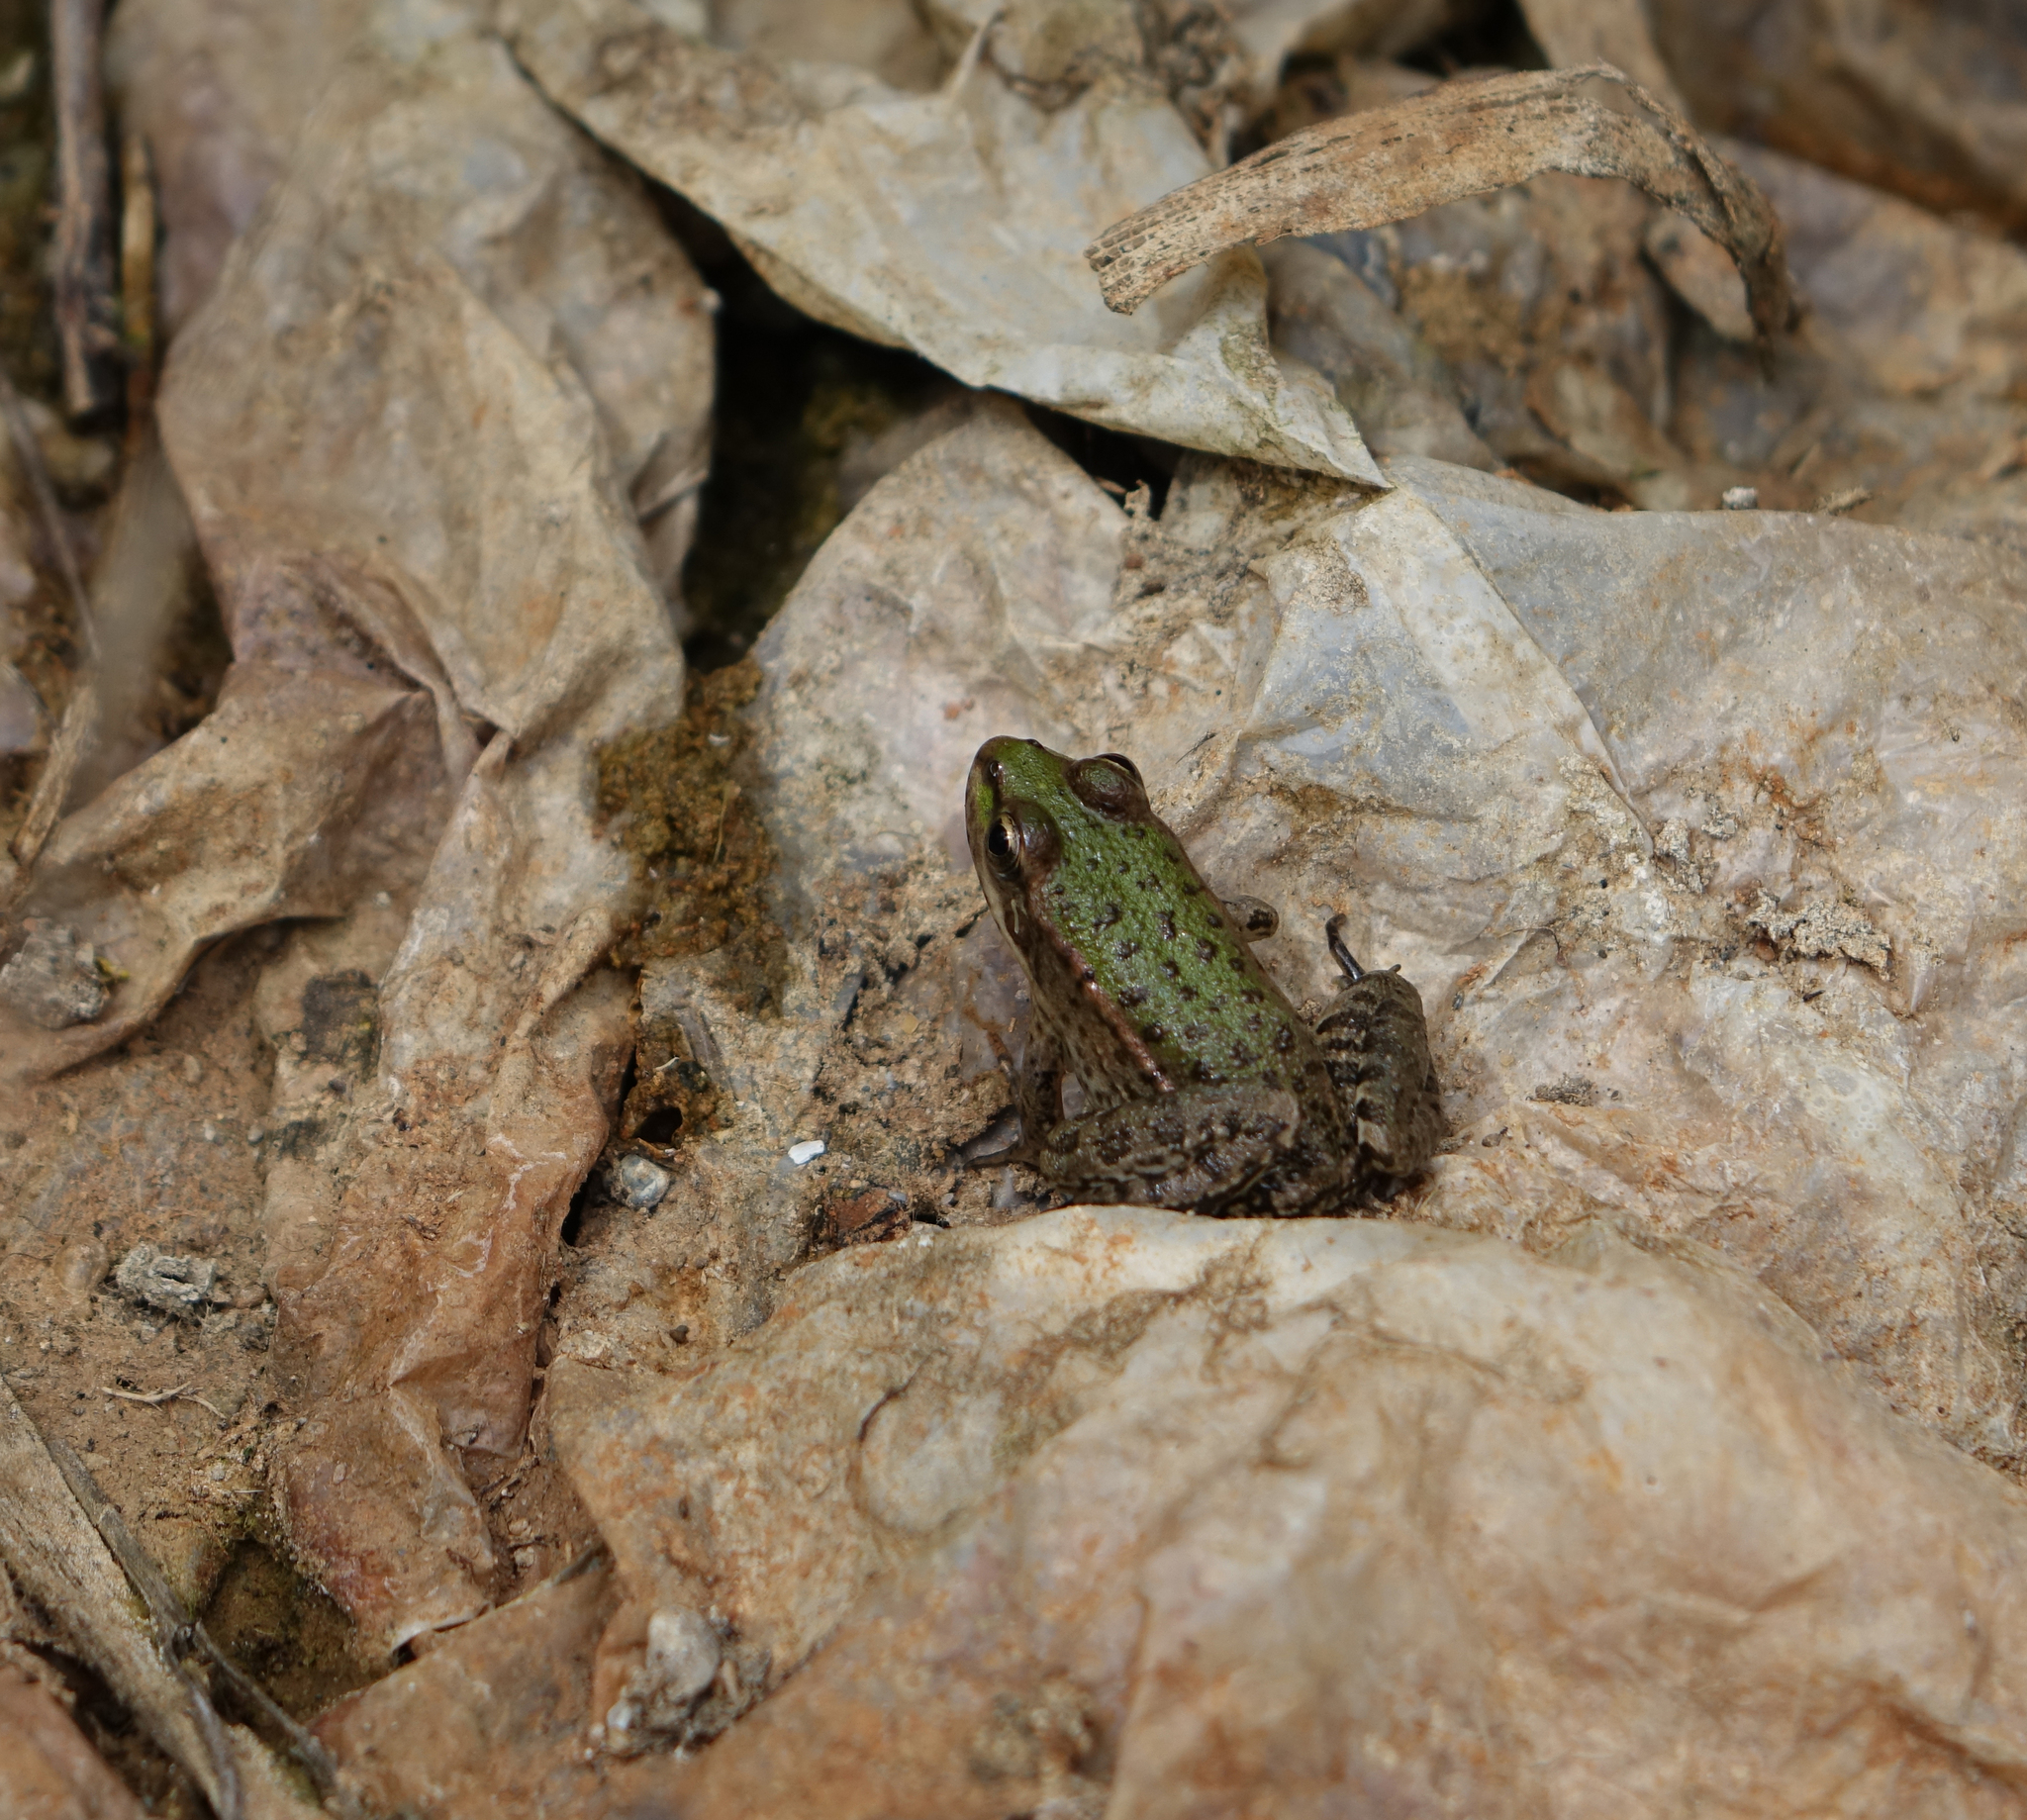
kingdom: Animalia
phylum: Chordata
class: Amphibia
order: Anura
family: Ranidae
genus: Pelophylax
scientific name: Pelophylax ridibundus
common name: Marsh frog
